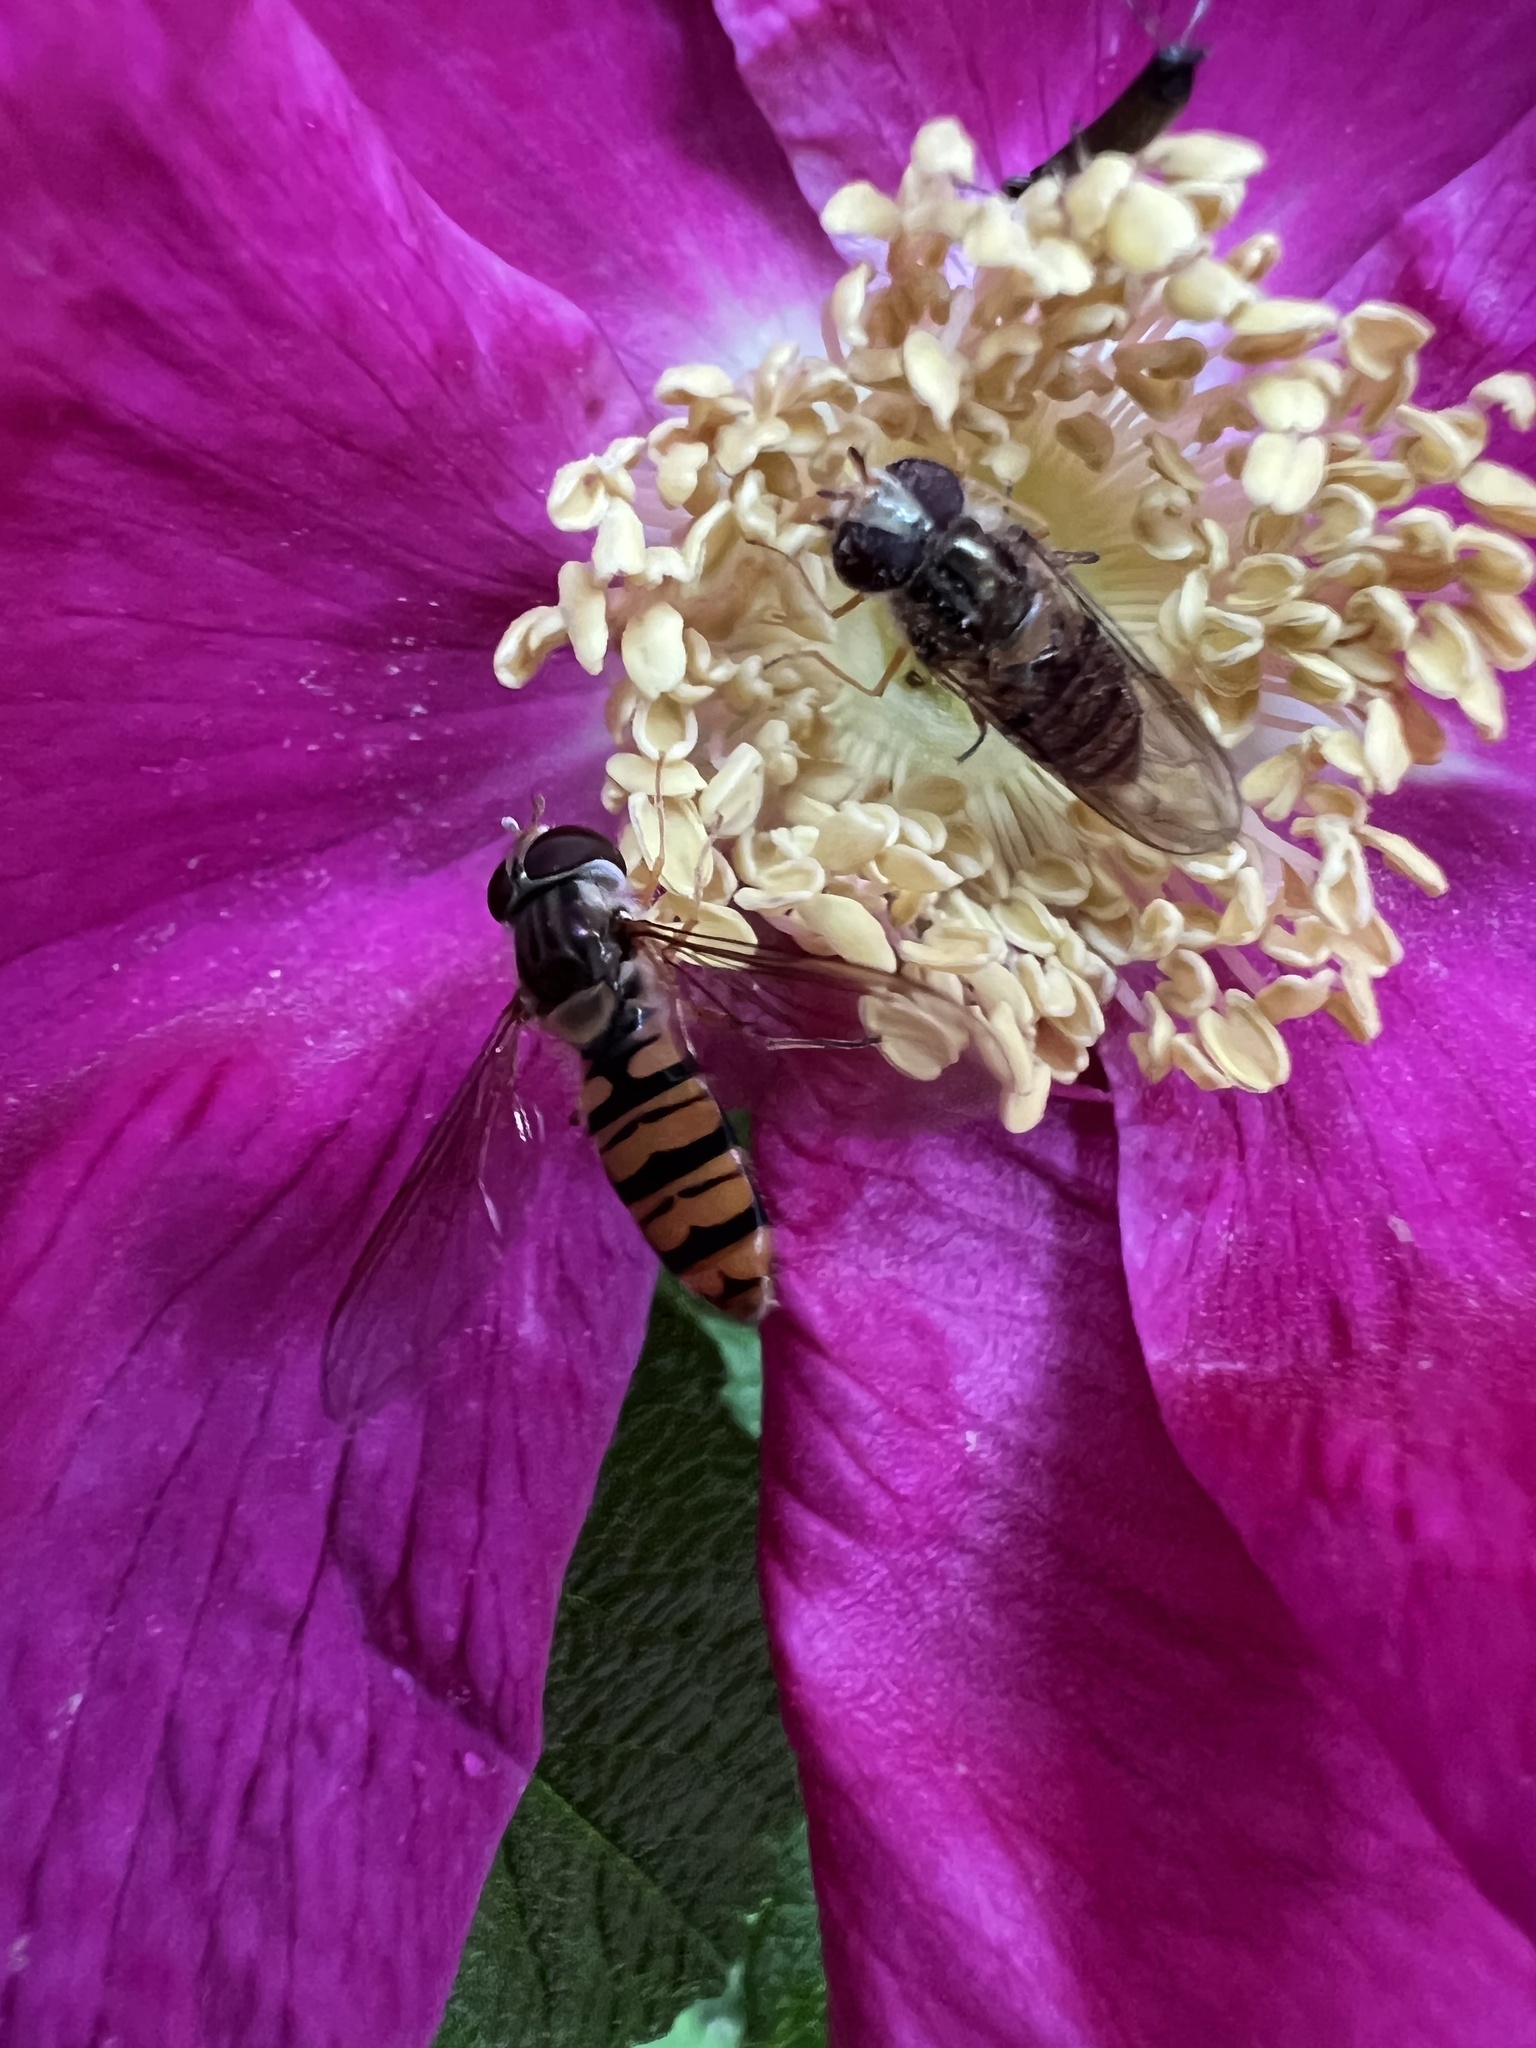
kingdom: Animalia
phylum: Arthropoda
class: Insecta
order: Diptera
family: Syrphidae
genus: Episyrphus
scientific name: Episyrphus balteatus
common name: Marmalade hoverfly
